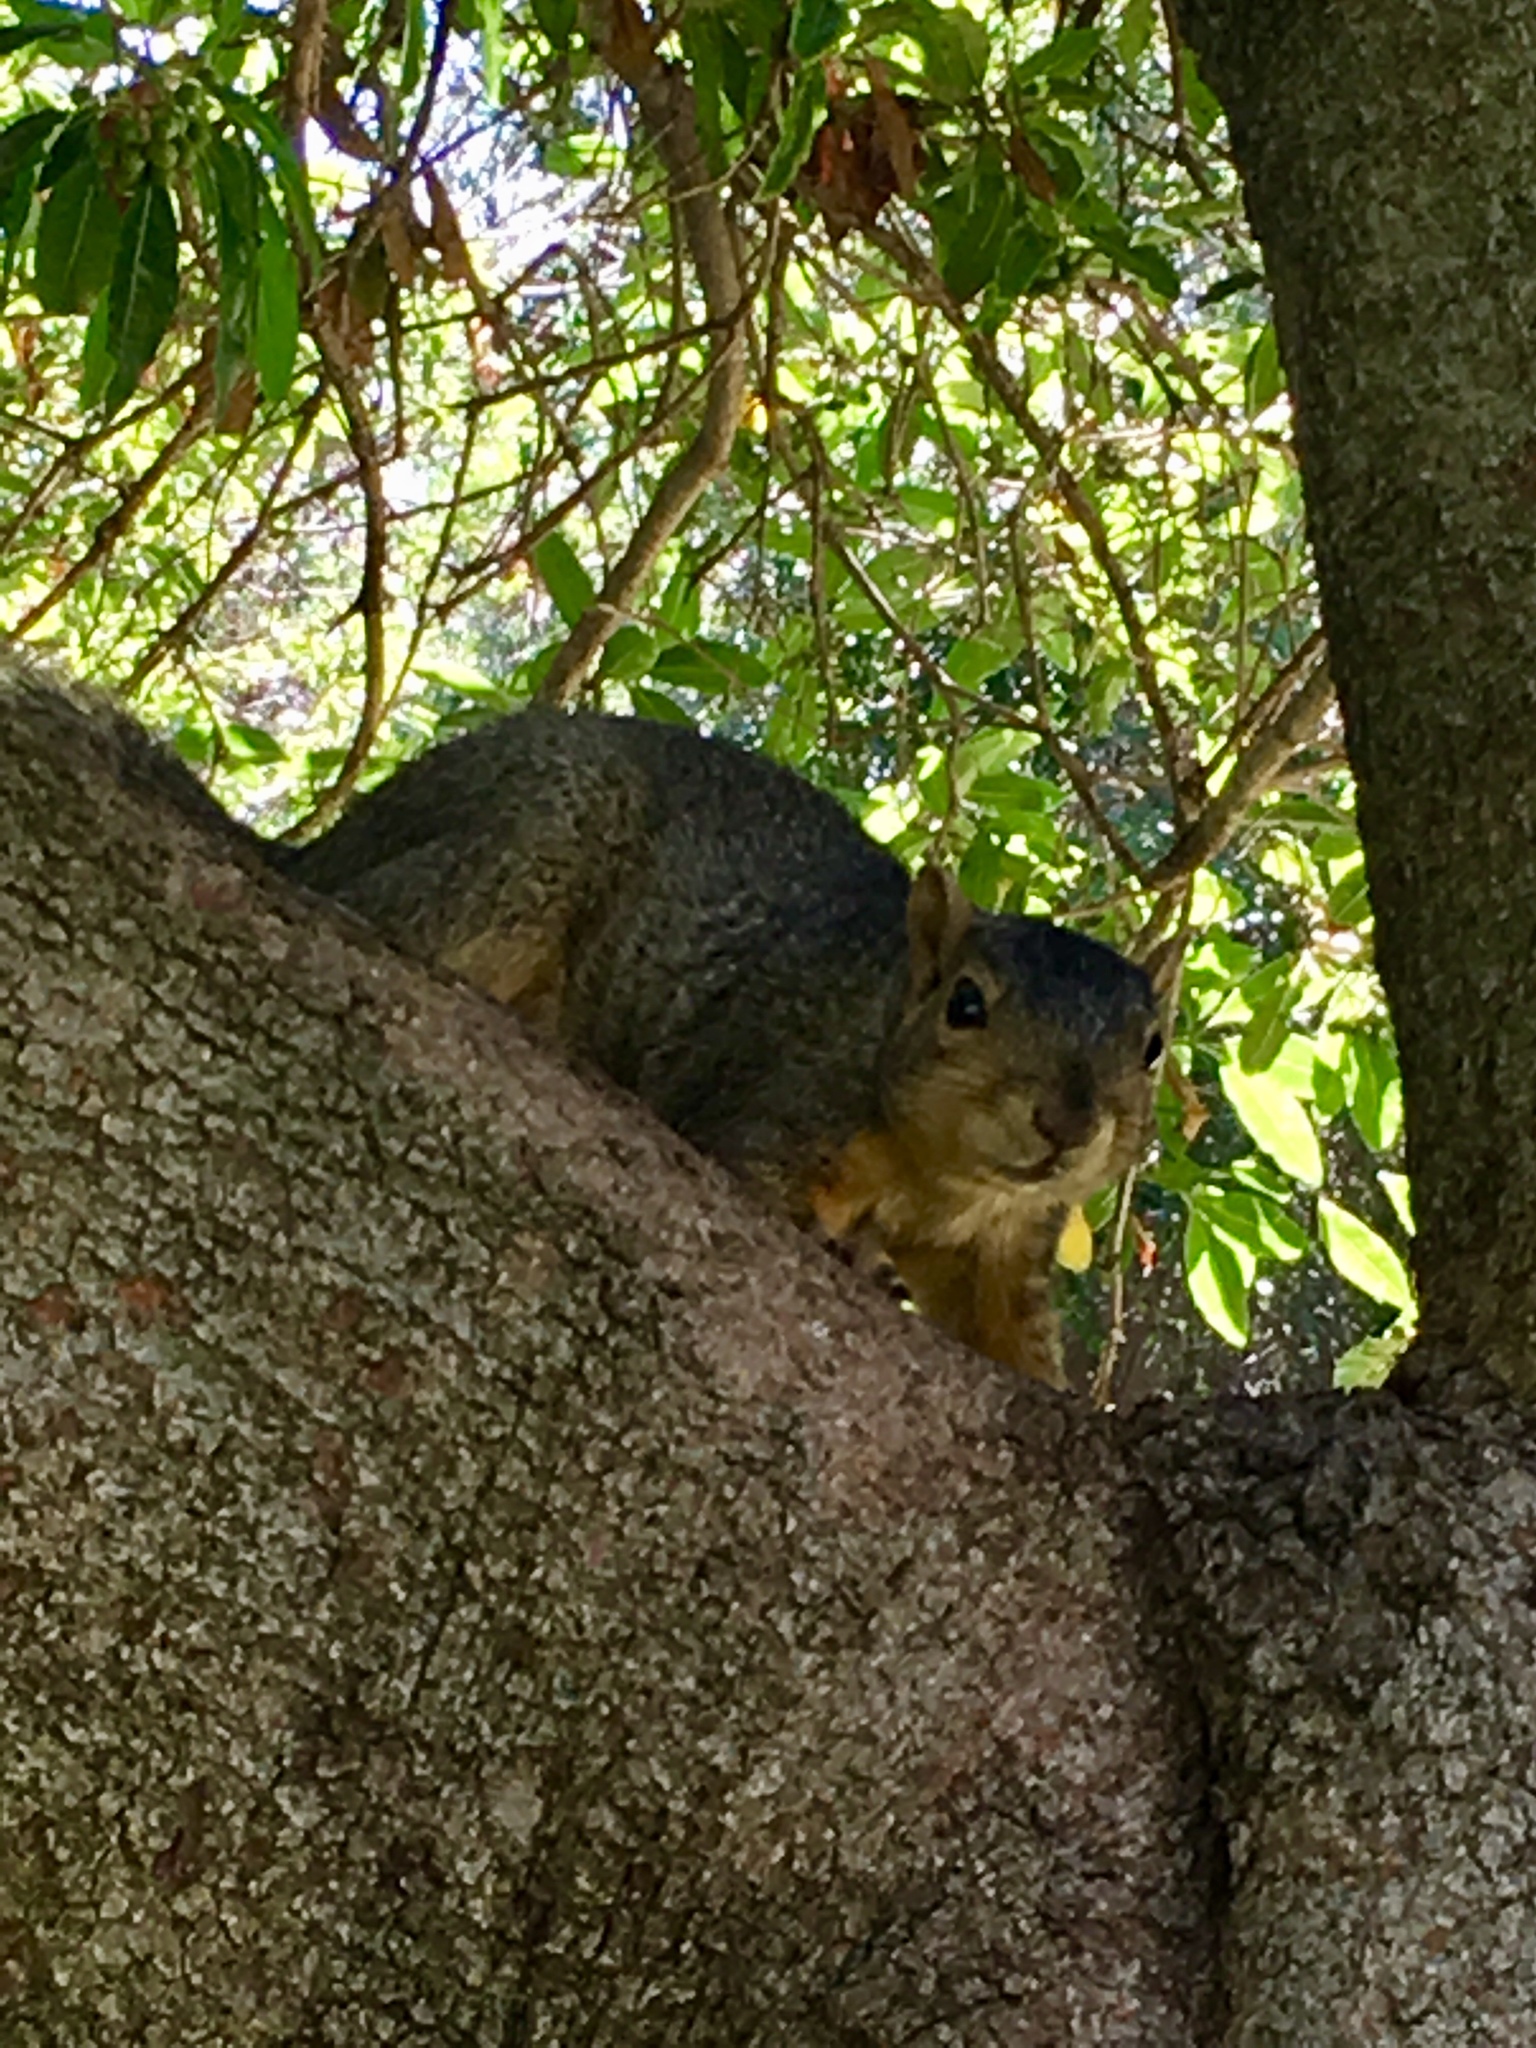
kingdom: Animalia
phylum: Chordata
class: Mammalia
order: Rodentia
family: Sciuridae
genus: Sciurus
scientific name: Sciurus niger
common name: Fox squirrel
